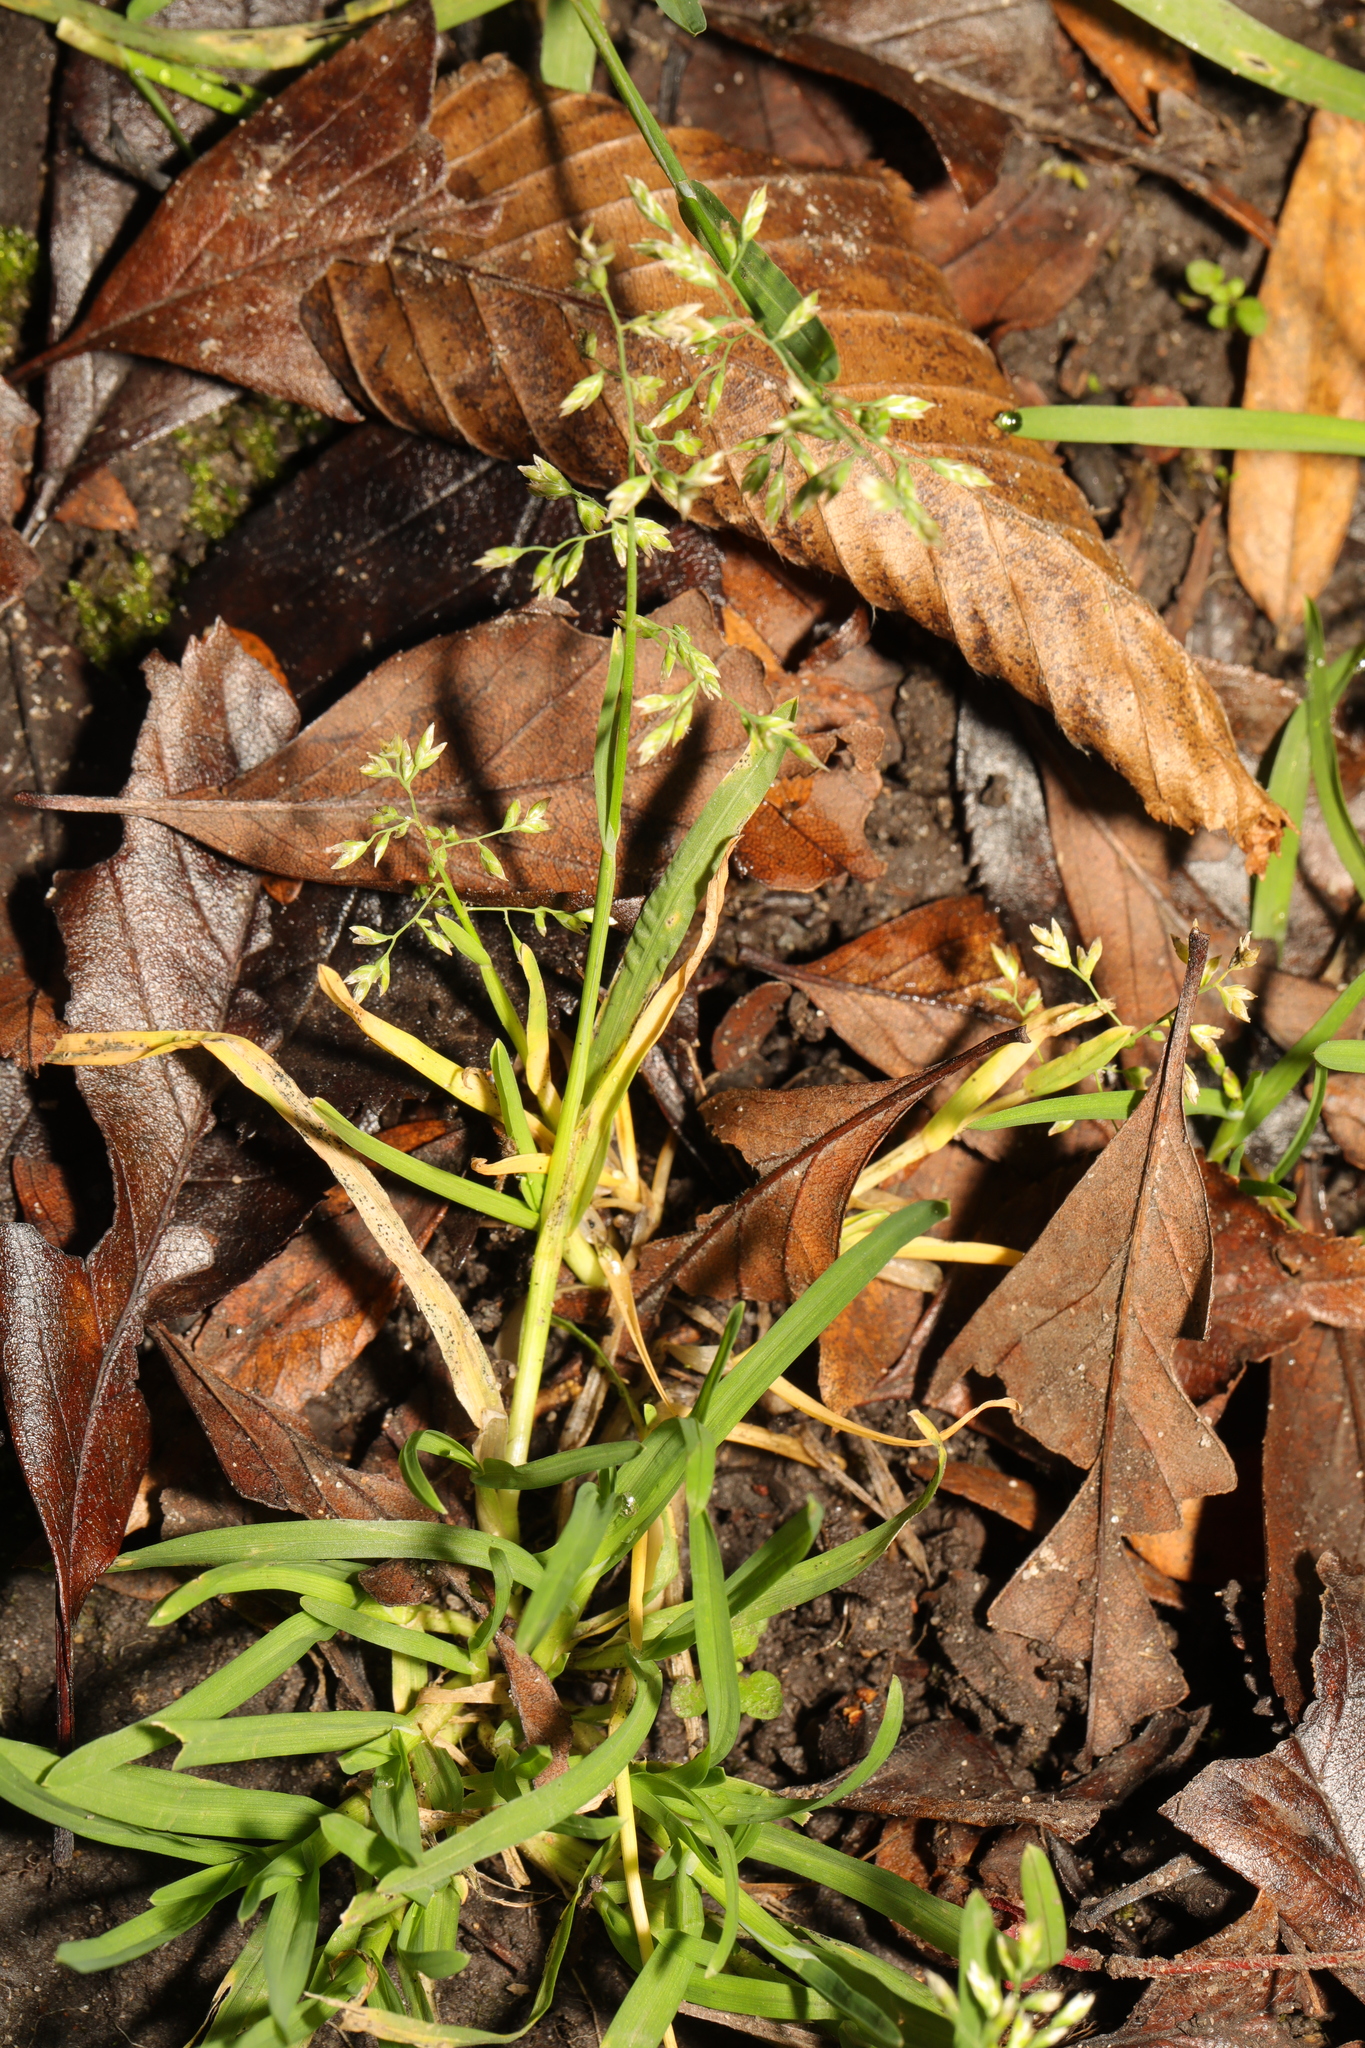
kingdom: Plantae
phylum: Tracheophyta
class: Liliopsida
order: Poales
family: Poaceae
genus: Poa
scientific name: Poa annua
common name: Annual bluegrass
